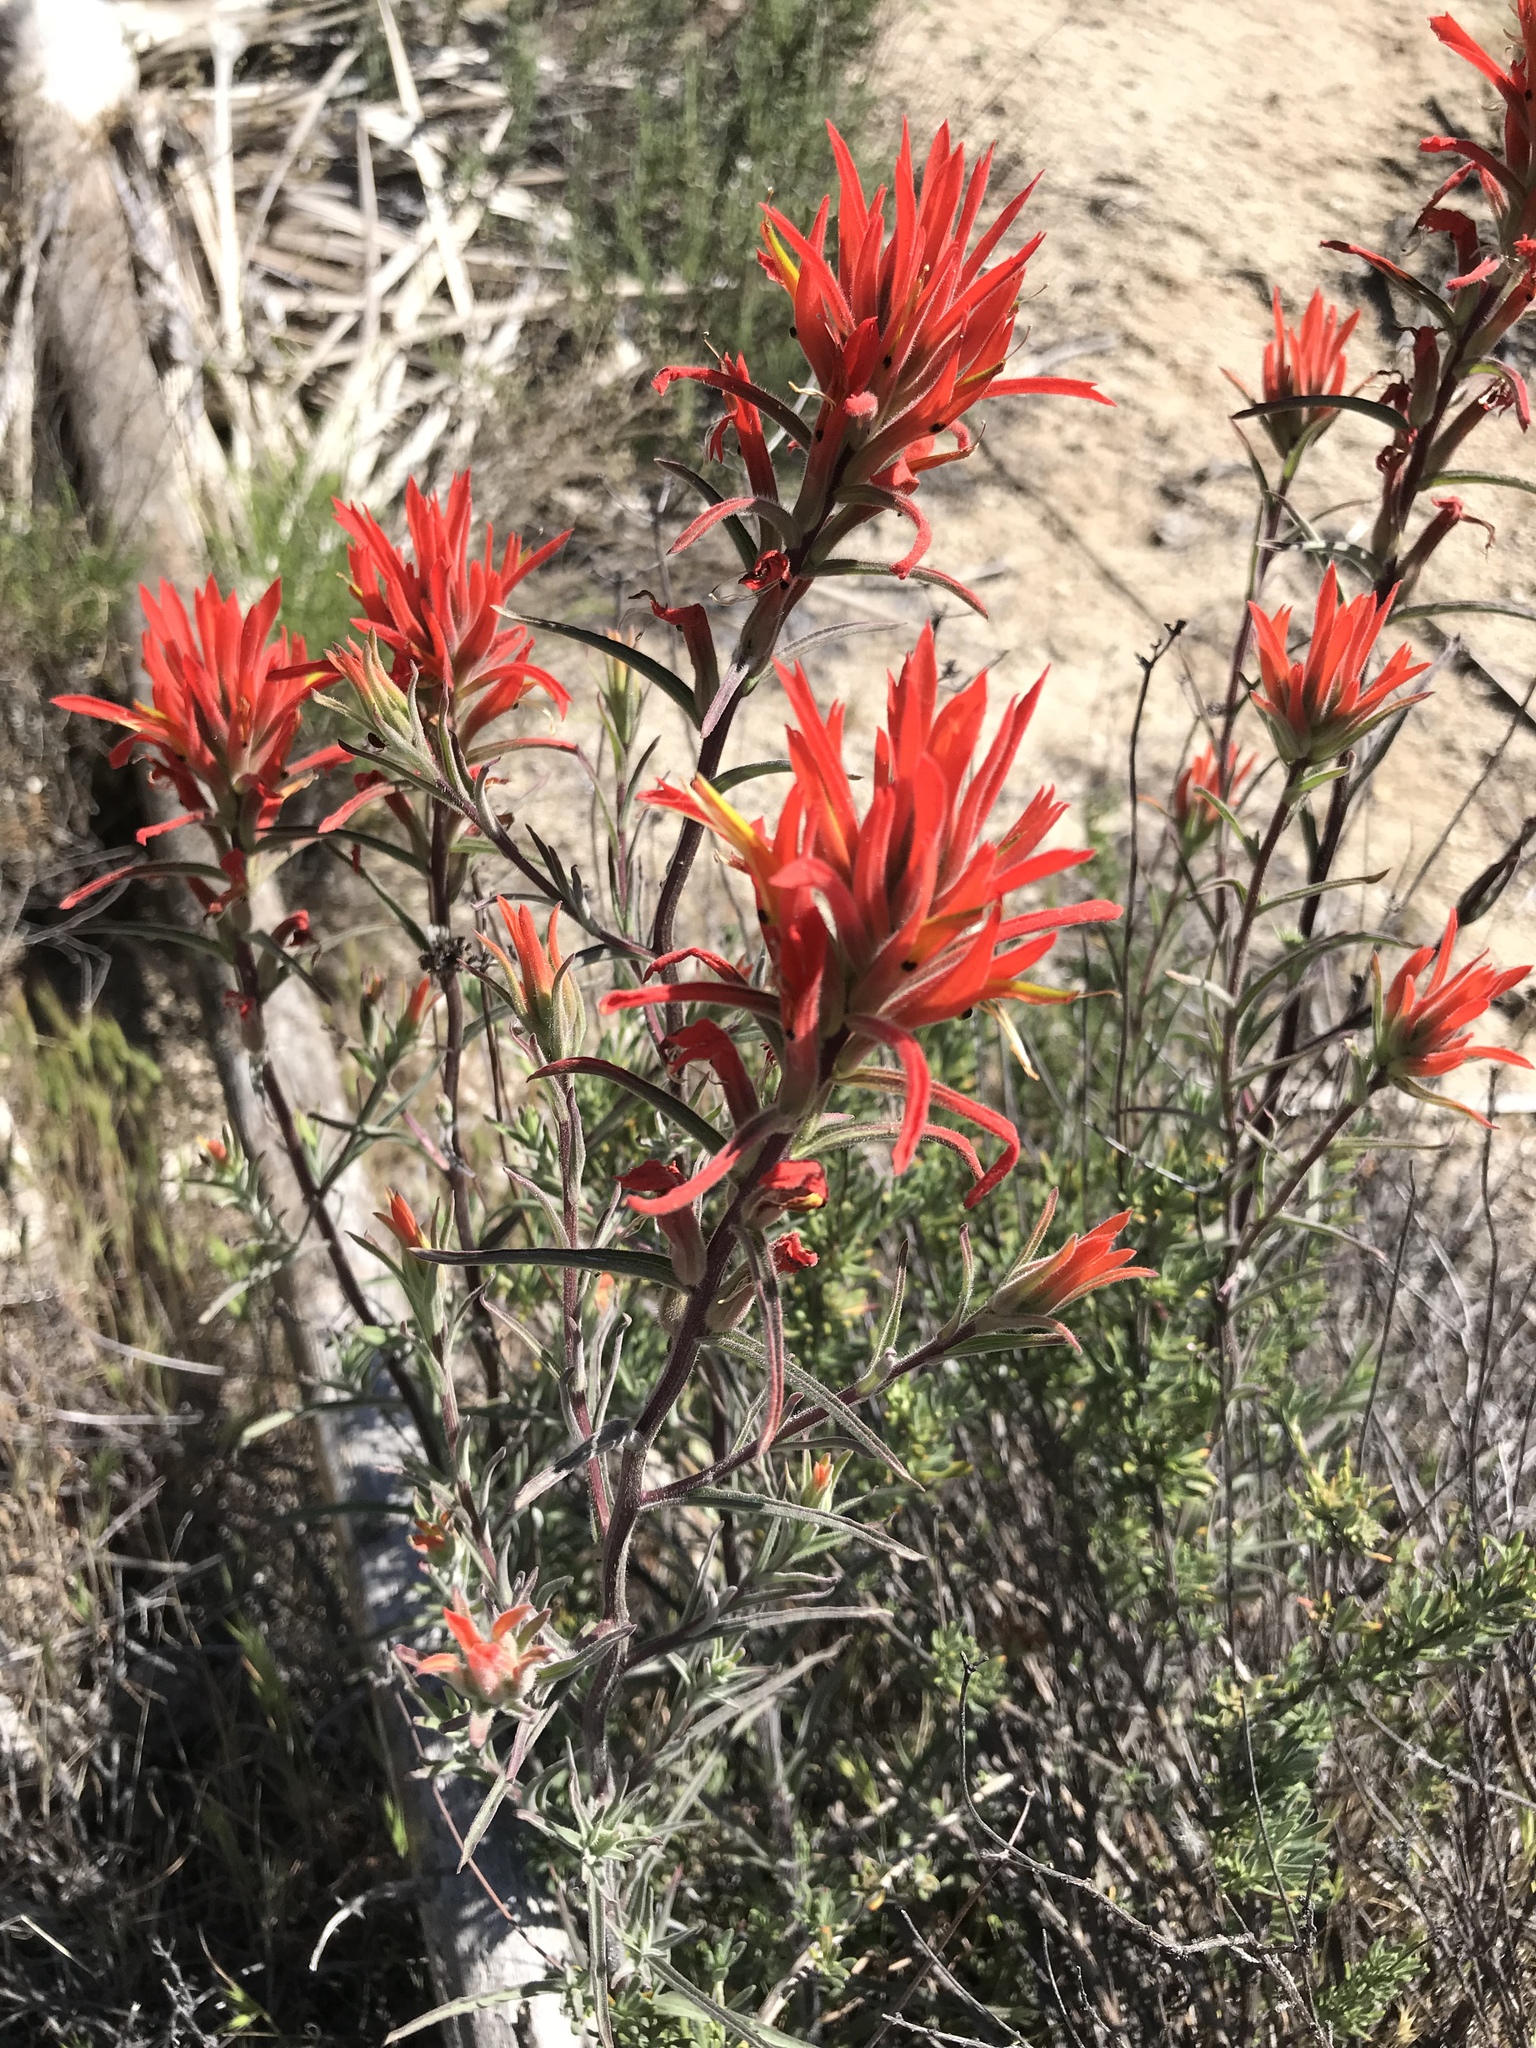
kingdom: Plantae
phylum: Tracheophyta
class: Magnoliopsida
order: Lamiales
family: Orobanchaceae
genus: Castilleja
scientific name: Castilleja subinclusa
